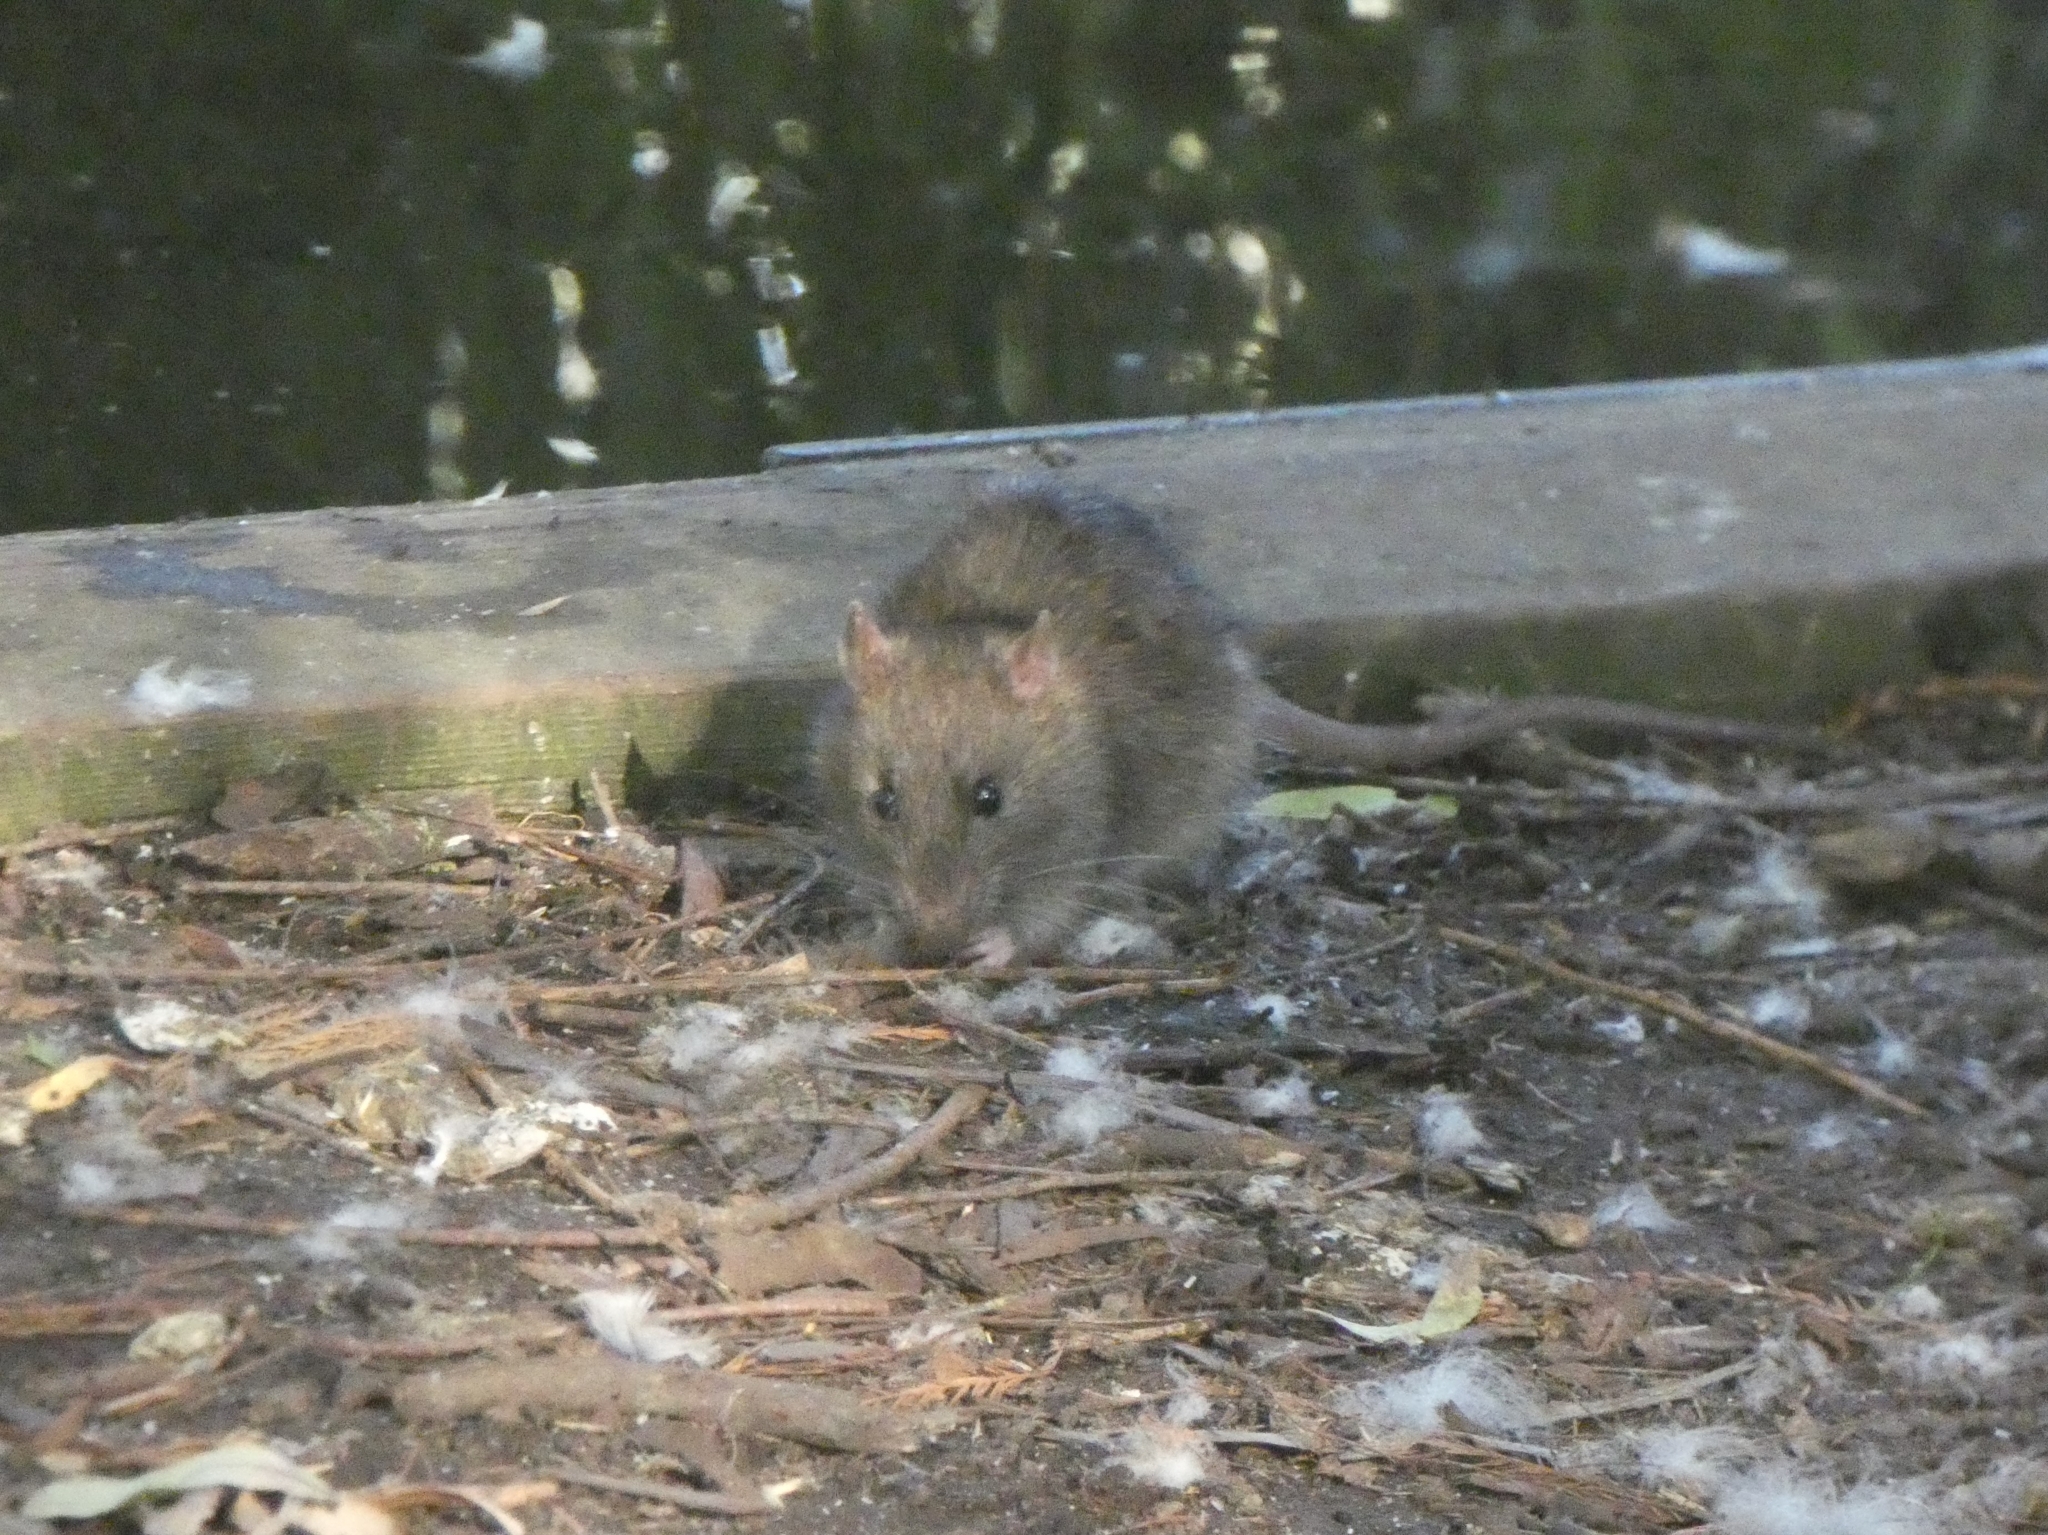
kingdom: Animalia
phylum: Chordata
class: Mammalia
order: Rodentia
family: Muridae
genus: Rattus
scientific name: Rattus norvegicus
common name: Brown rat
